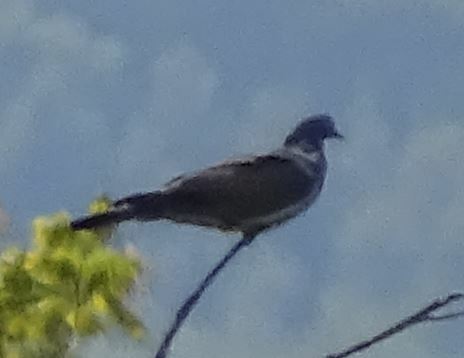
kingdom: Animalia
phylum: Chordata
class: Aves
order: Columbiformes
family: Columbidae
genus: Columba
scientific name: Columba palumbus
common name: Common wood pigeon
